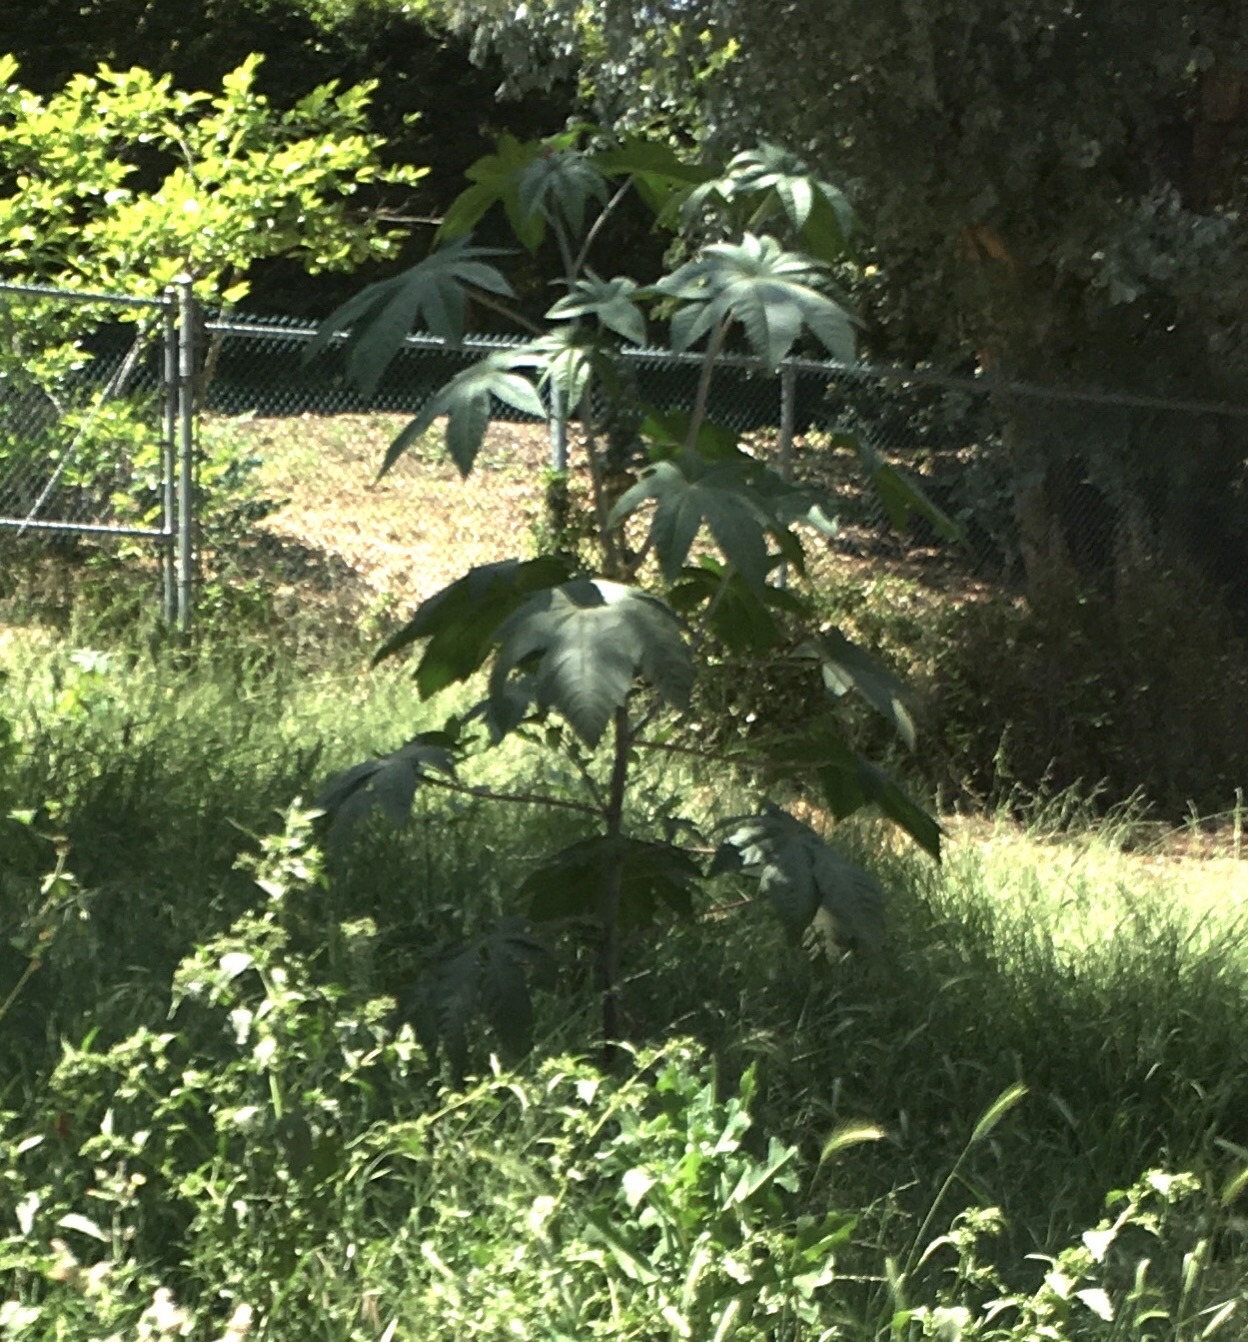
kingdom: Plantae
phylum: Tracheophyta
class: Magnoliopsida
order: Malpighiales
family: Euphorbiaceae
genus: Ricinus
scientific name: Ricinus communis
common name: Castor-oil-plant
